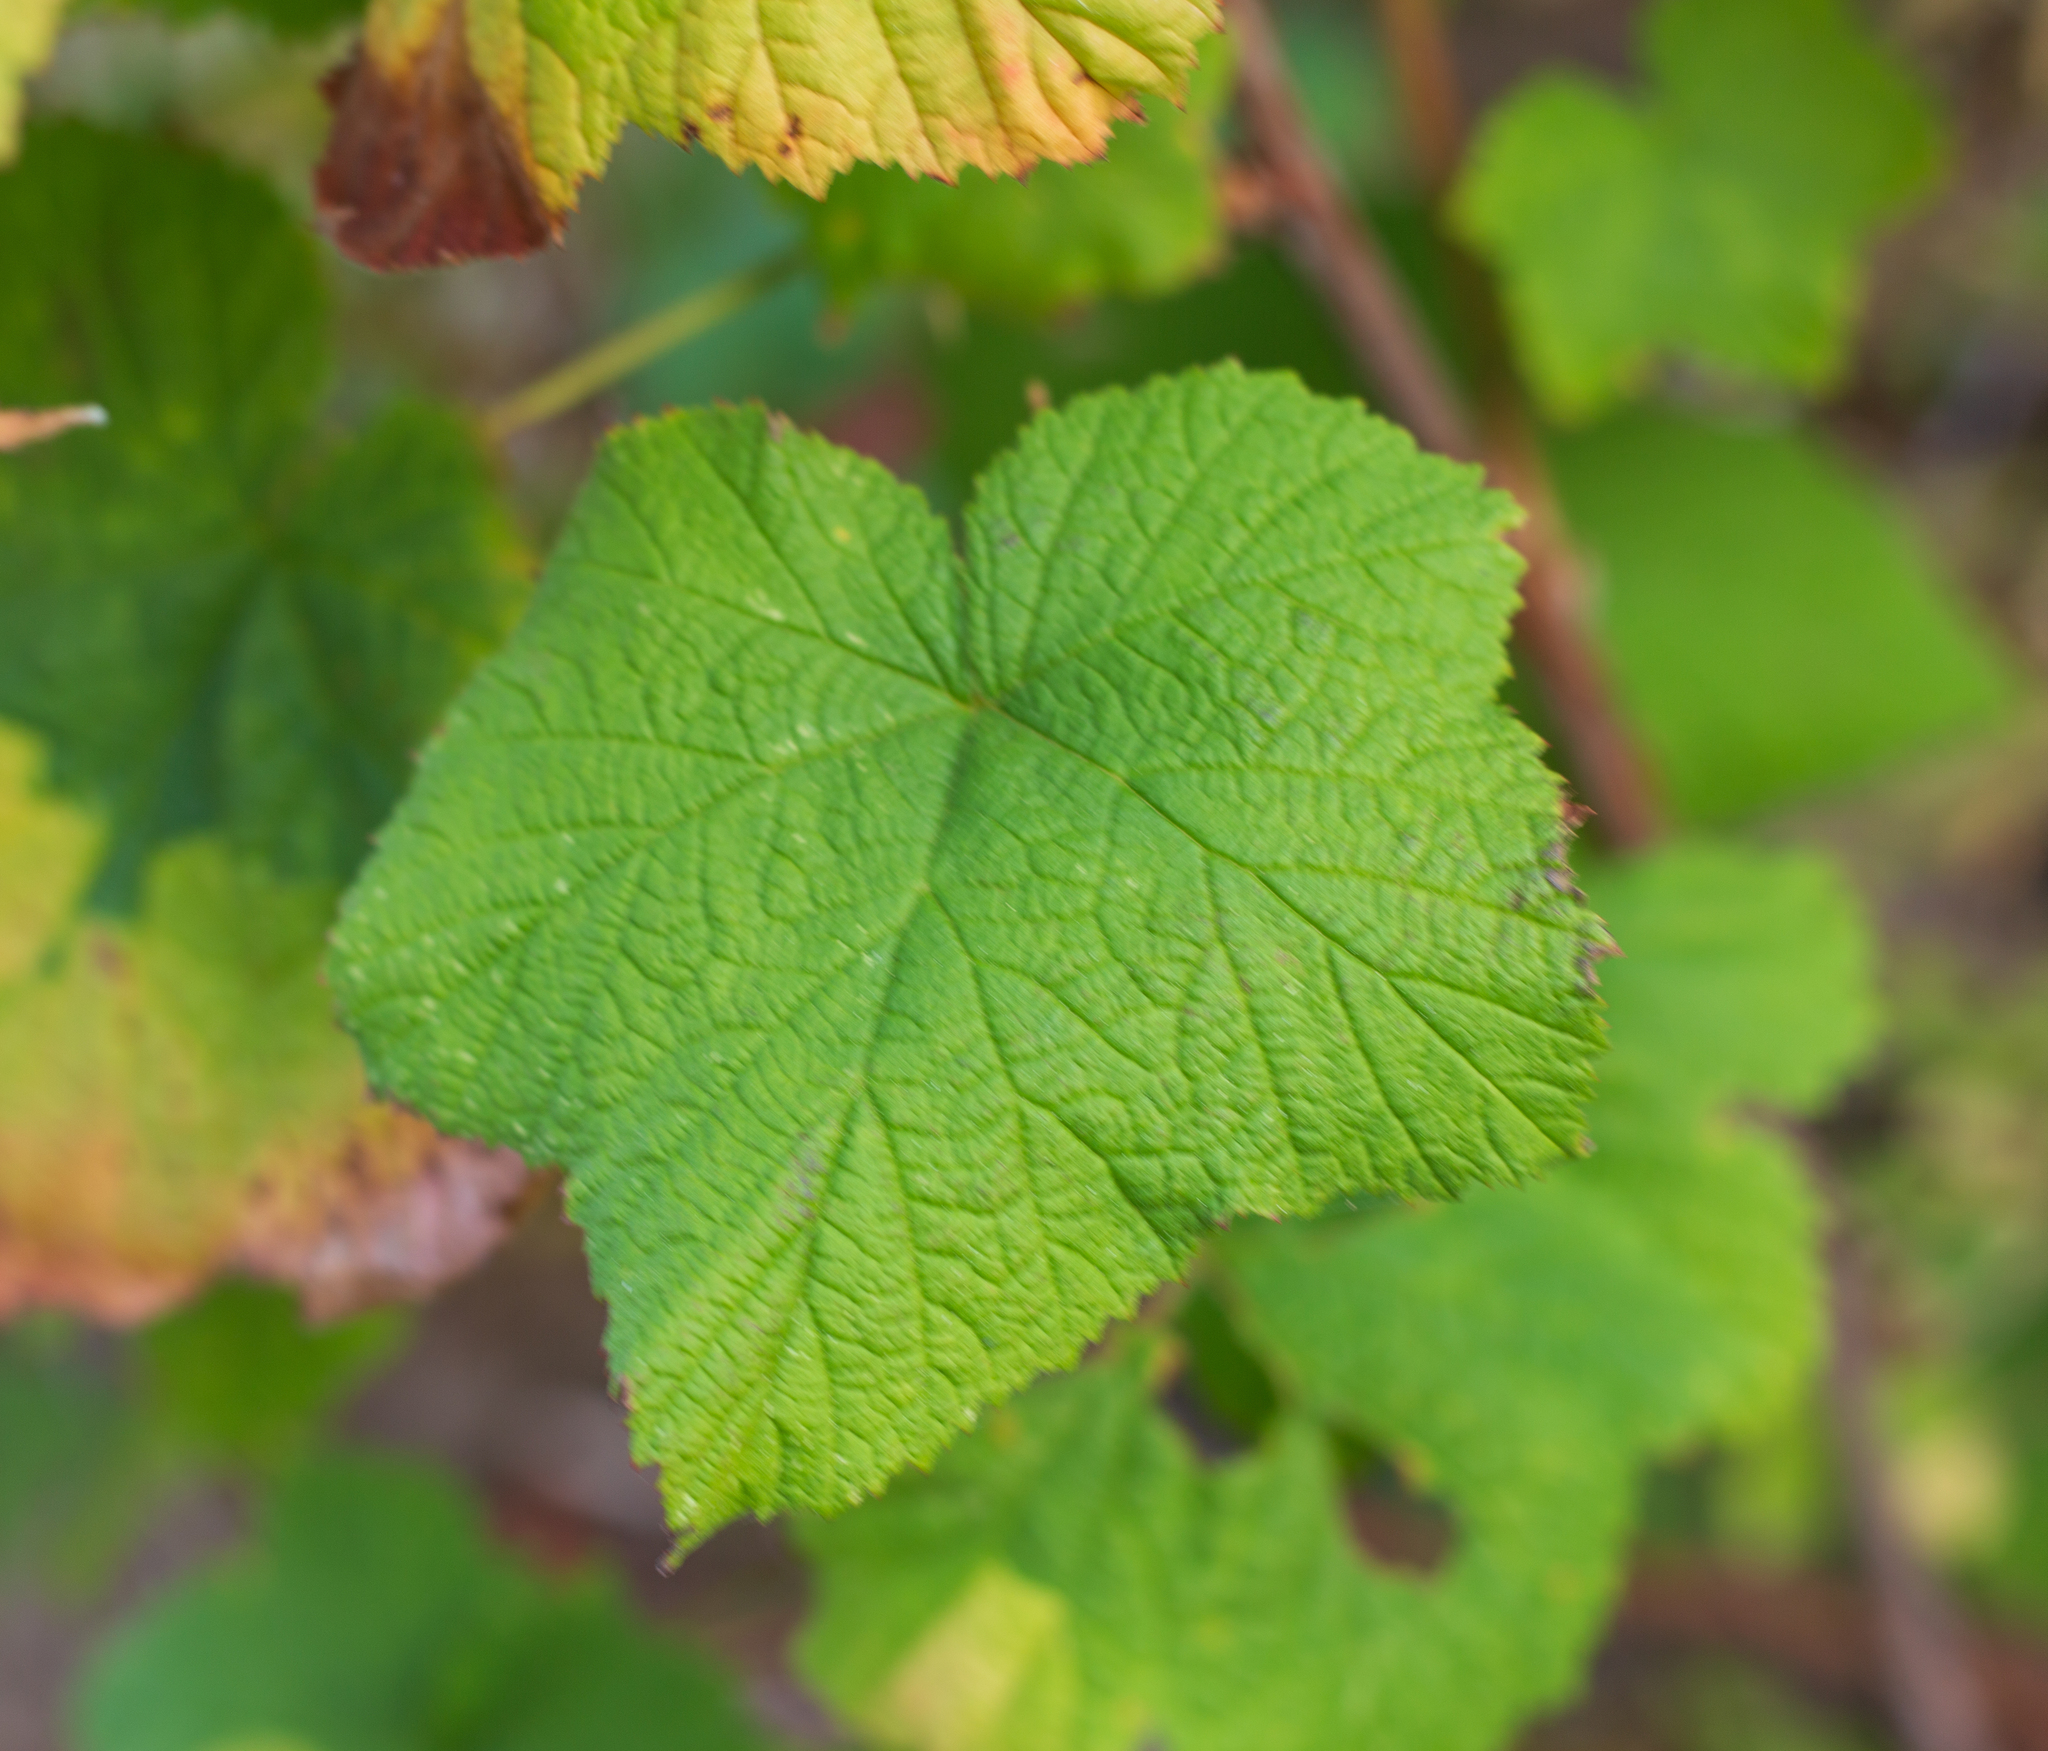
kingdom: Plantae
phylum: Tracheophyta
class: Magnoliopsida
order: Rosales
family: Rosaceae
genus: Rubus
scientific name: Rubus parviflorus
